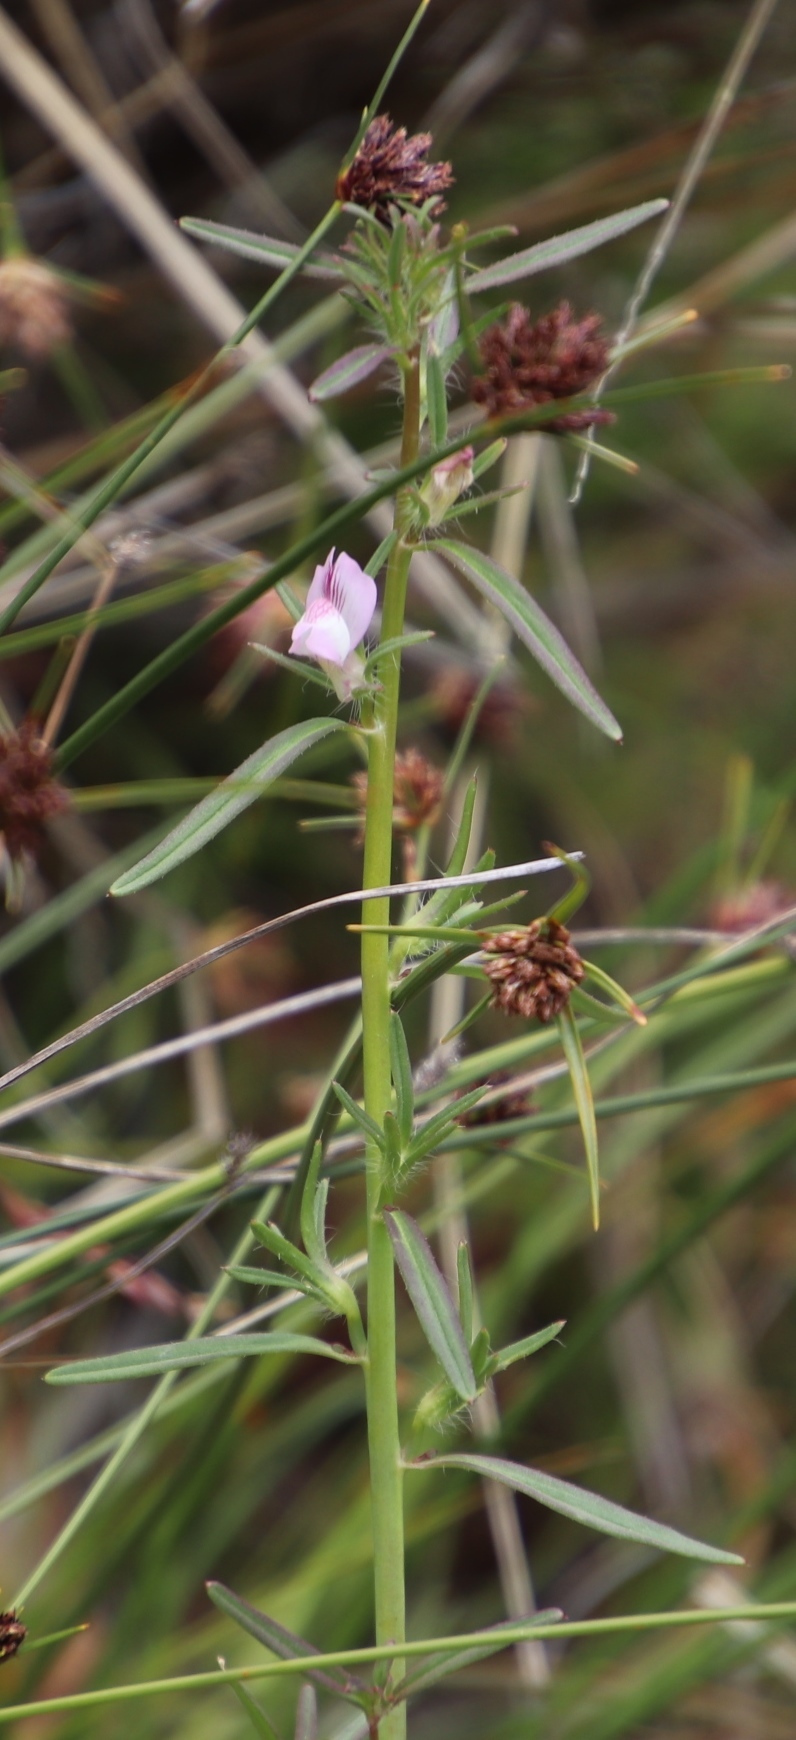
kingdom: Plantae
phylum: Tracheophyta
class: Magnoliopsida
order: Fabales
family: Fabaceae
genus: Vicia
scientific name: Vicia sativa
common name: Garden vetch
